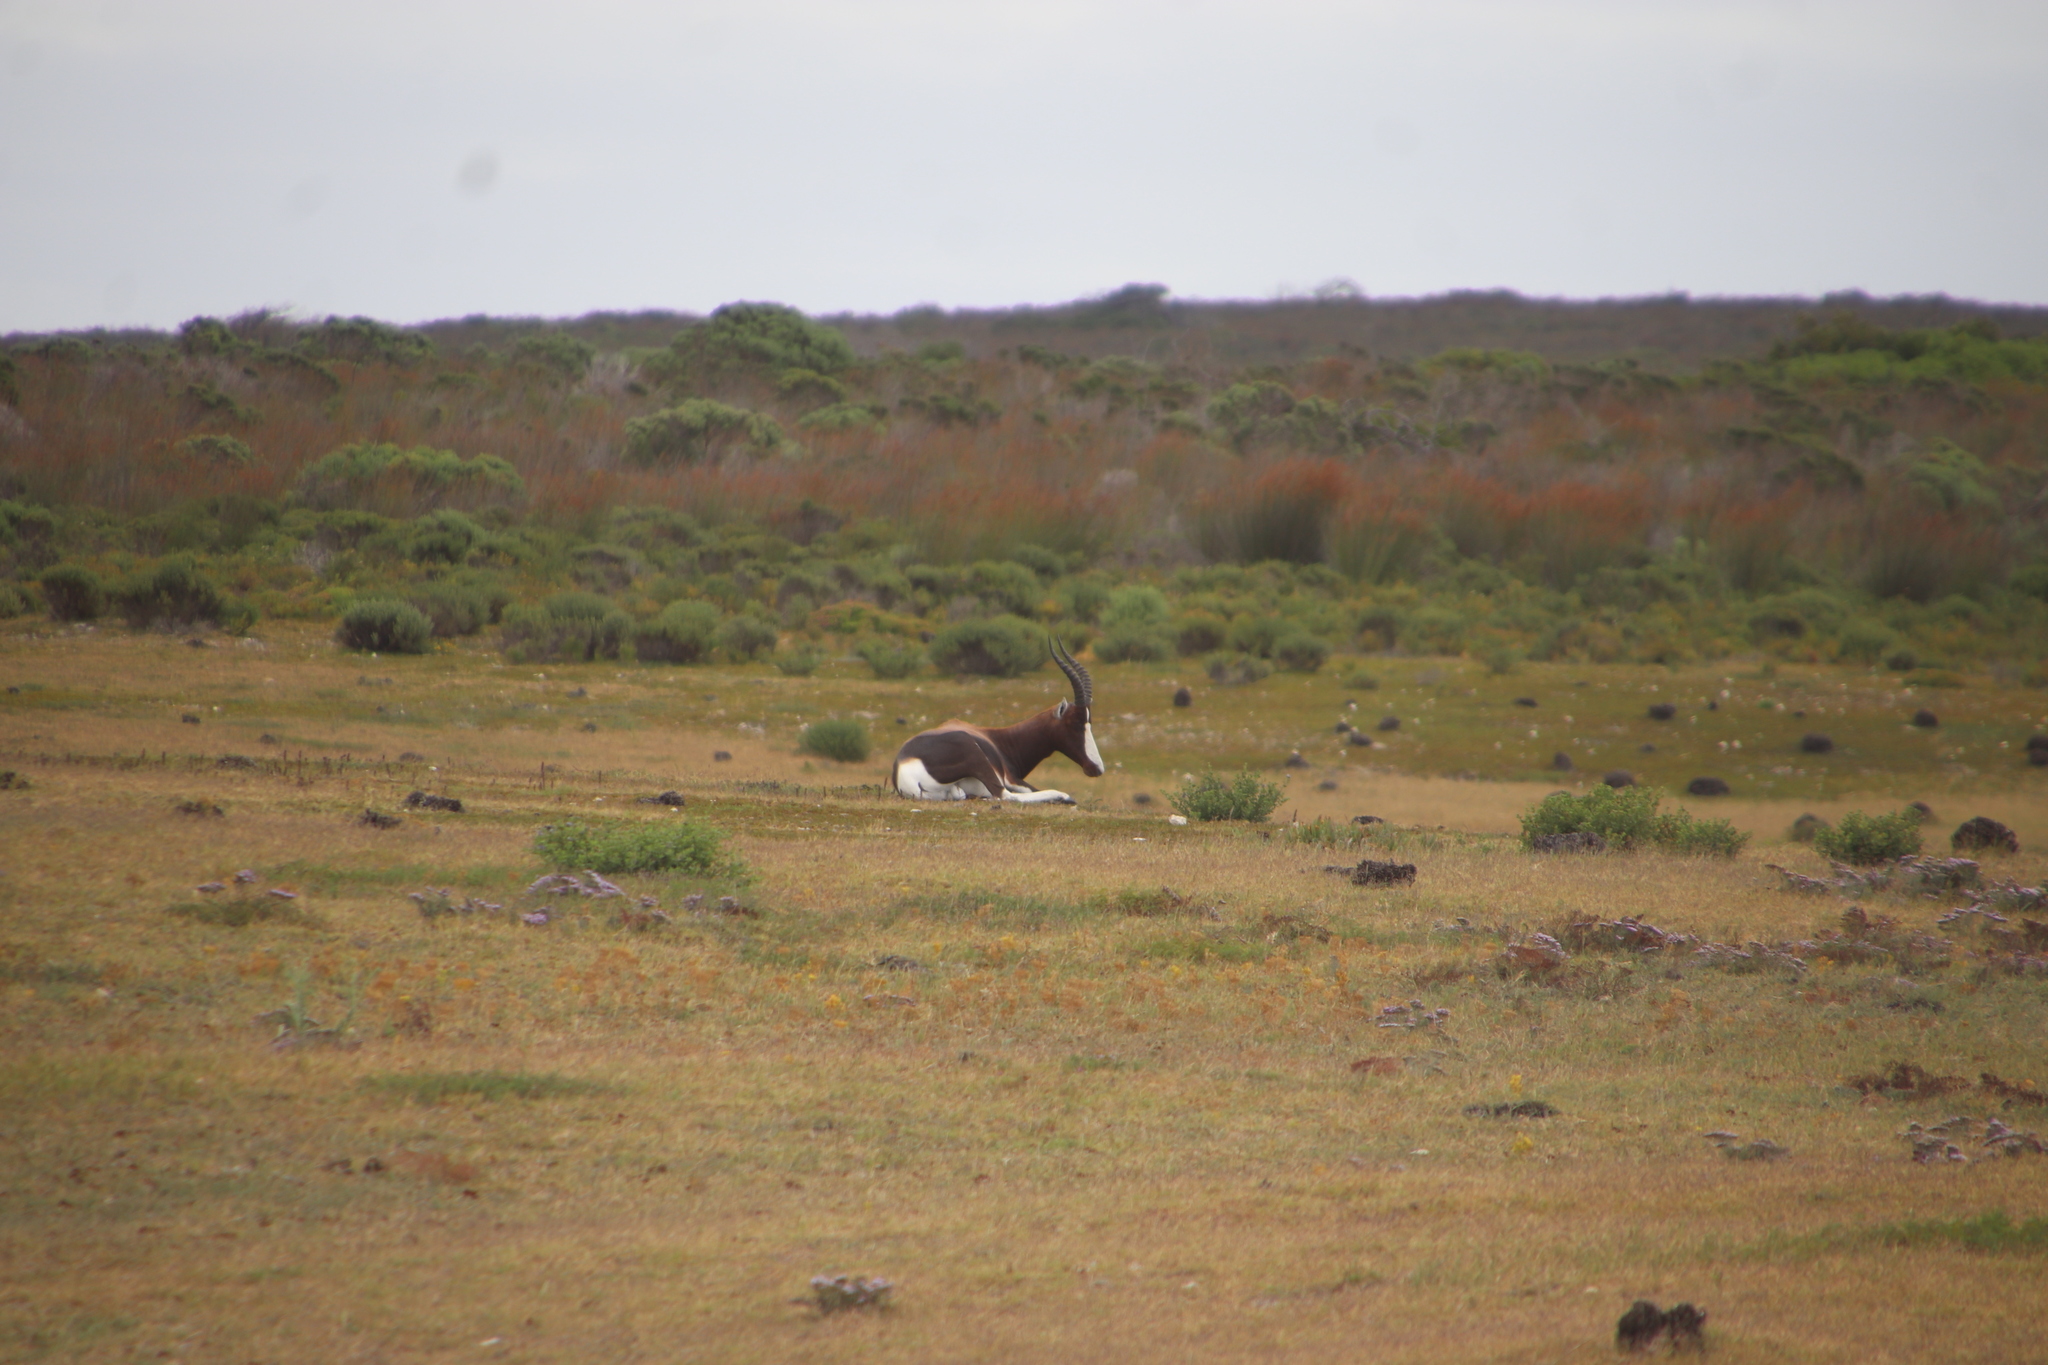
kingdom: Animalia
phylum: Chordata
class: Mammalia
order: Artiodactyla
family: Bovidae
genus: Damaliscus
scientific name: Damaliscus pygargus
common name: Bontebok
